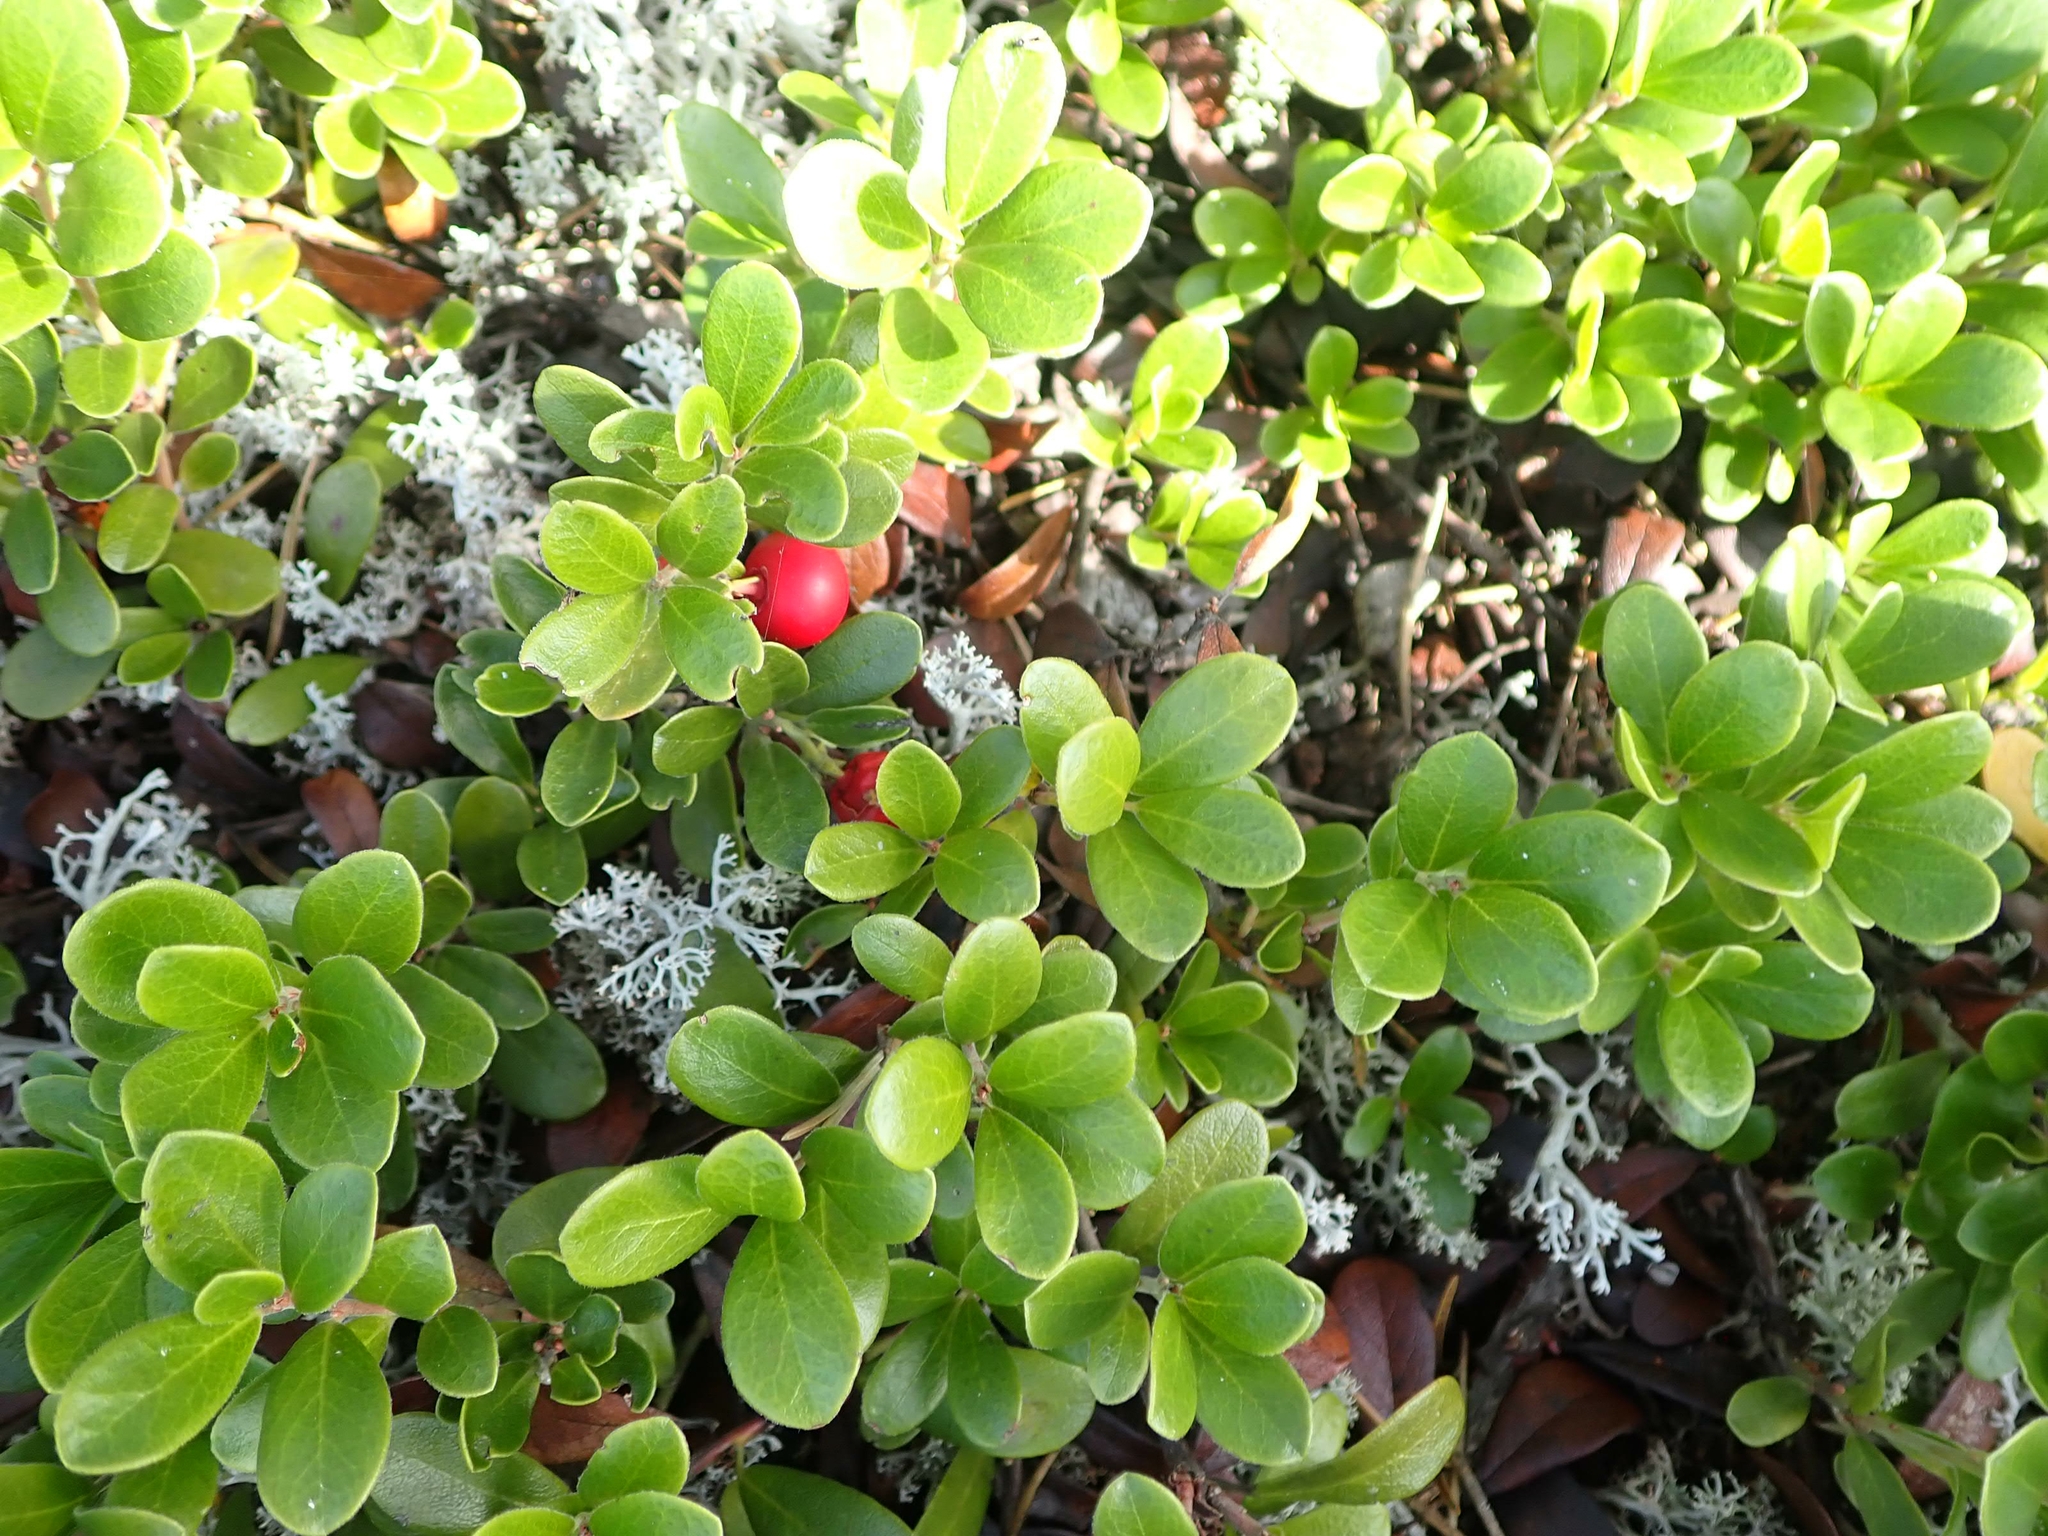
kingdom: Plantae
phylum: Tracheophyta
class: Magnoliopsida
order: Ericales
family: Ericaceae
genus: Arctostaphylos
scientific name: Arctostaphylos uva-ursi
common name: Bearberry
